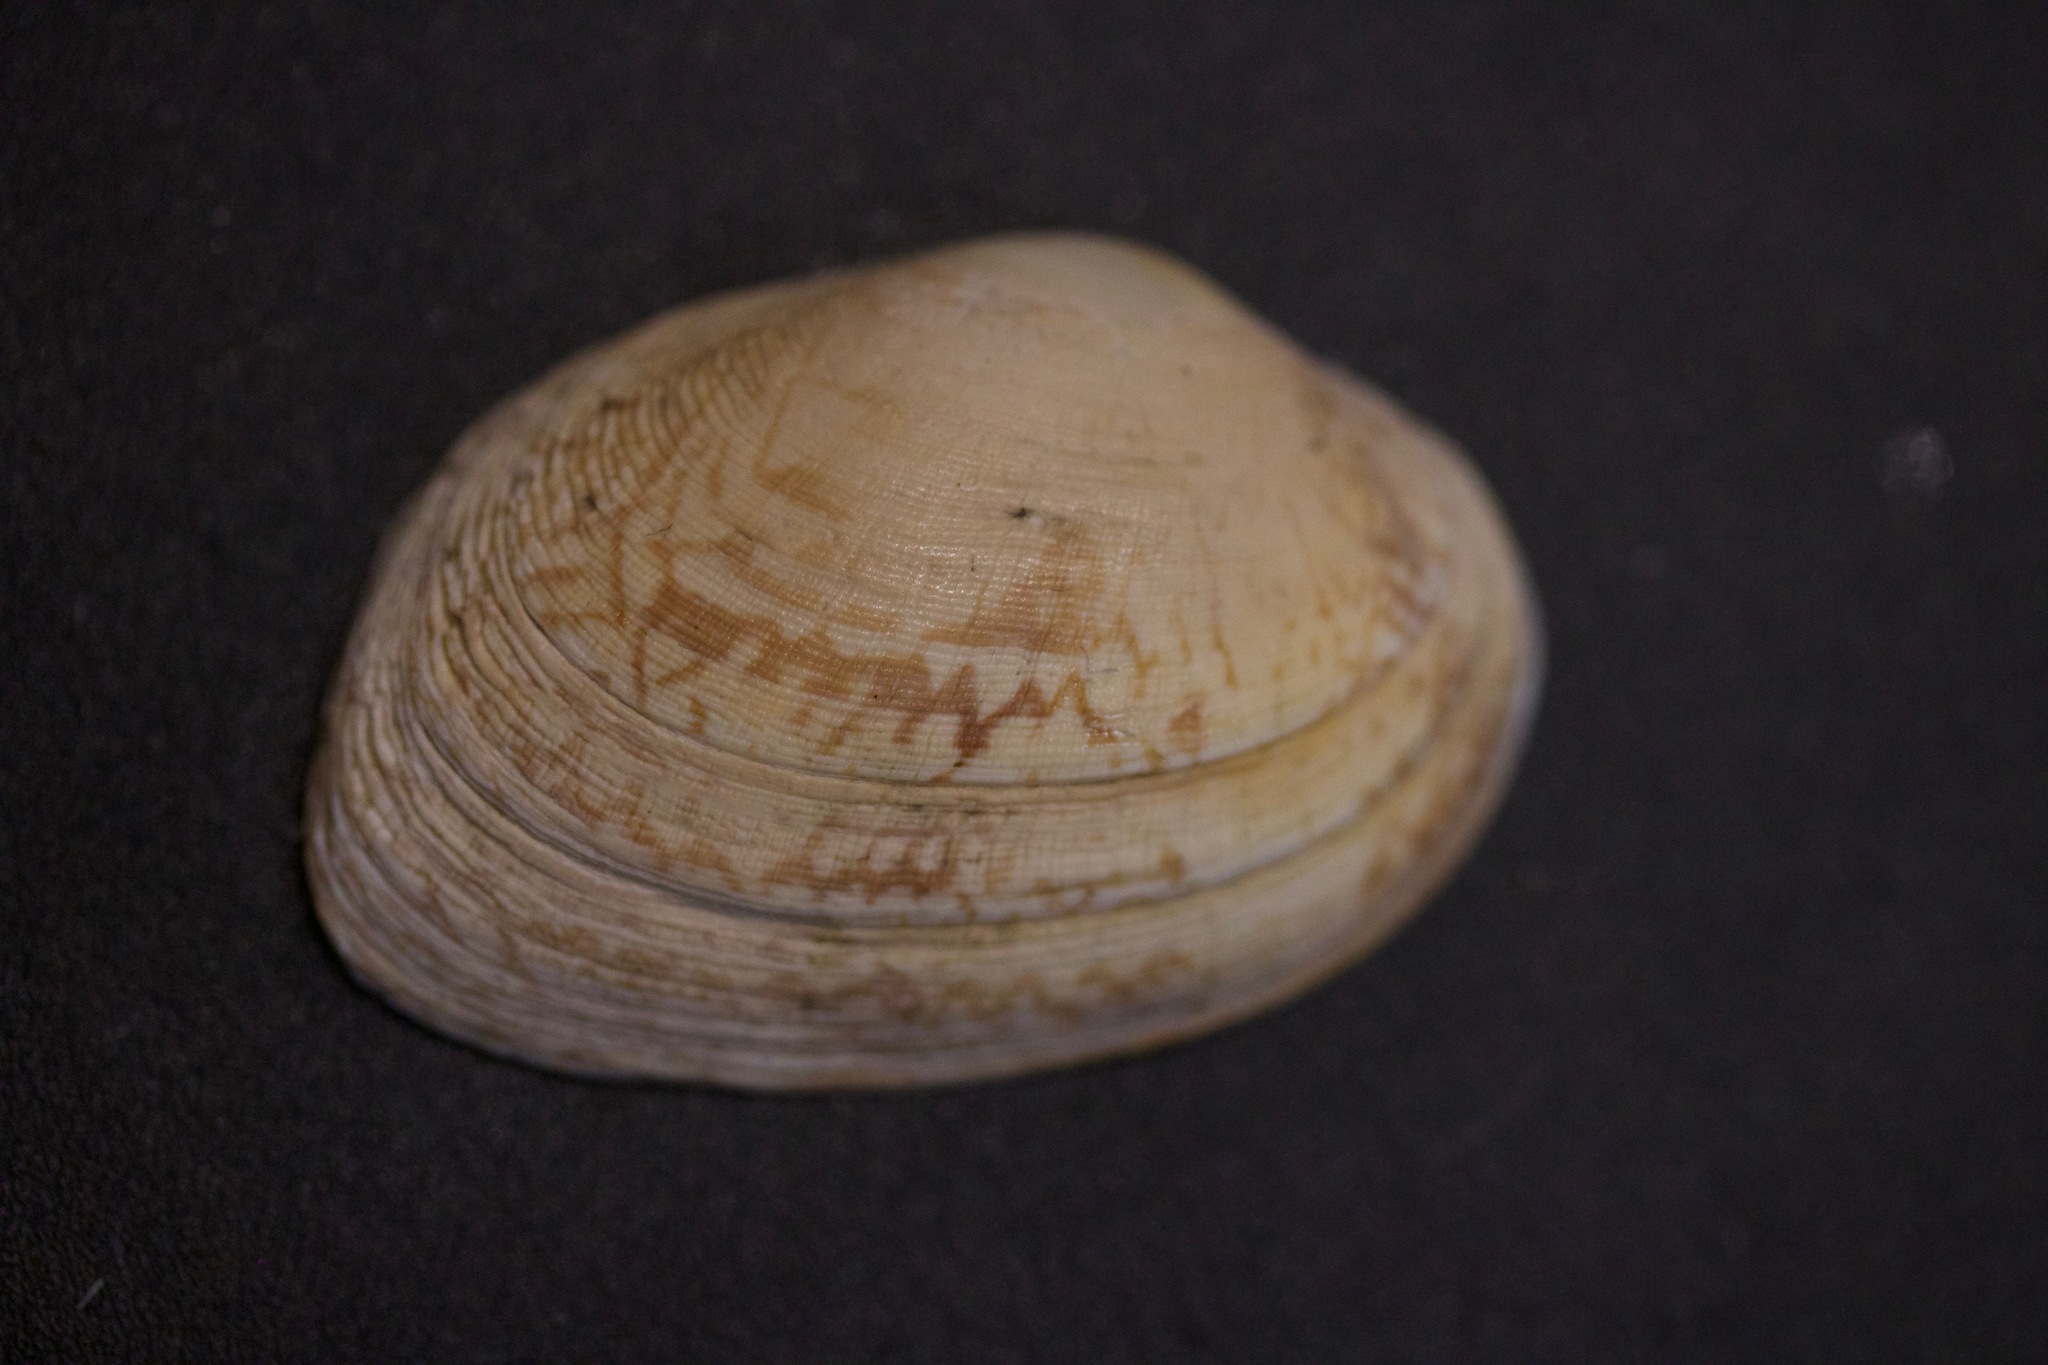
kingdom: Animalia
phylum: Mollusca
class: Bivalvia
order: Venerida
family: Veneridae
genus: Ruditapes
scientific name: Ruditapes decussatus
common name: Chequered carpet shell
